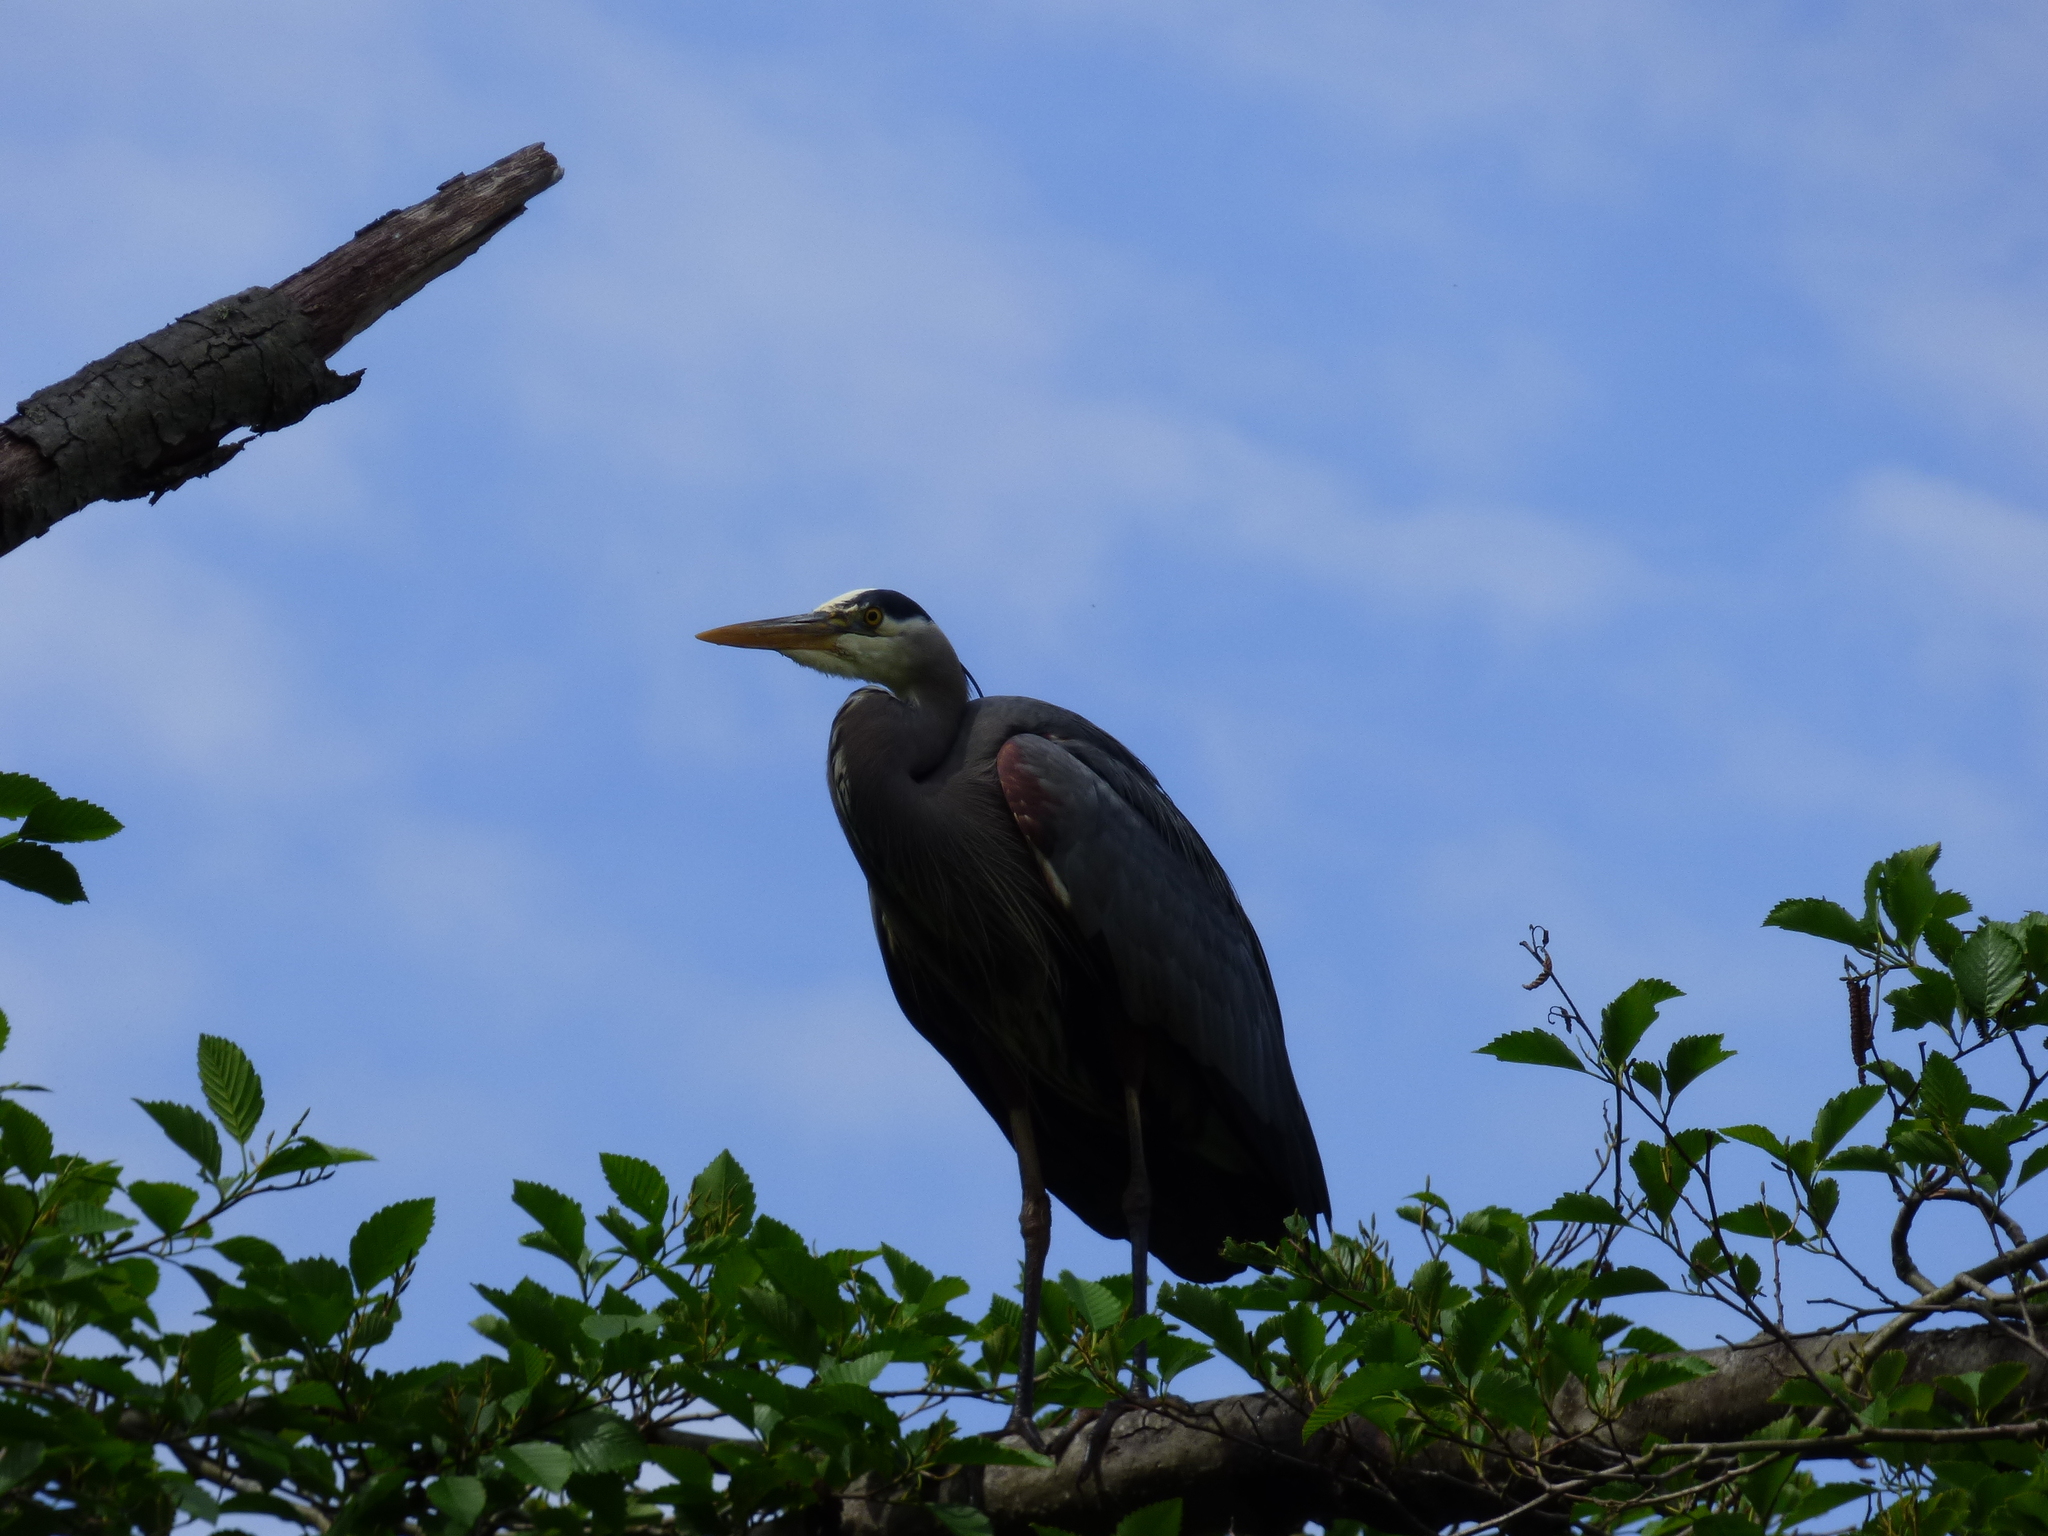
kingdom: Animalia
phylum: Chordata
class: Aves
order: Pelecaniformes
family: Ardeidae
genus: Ardea
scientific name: Ardea herodias
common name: Great blue heron
